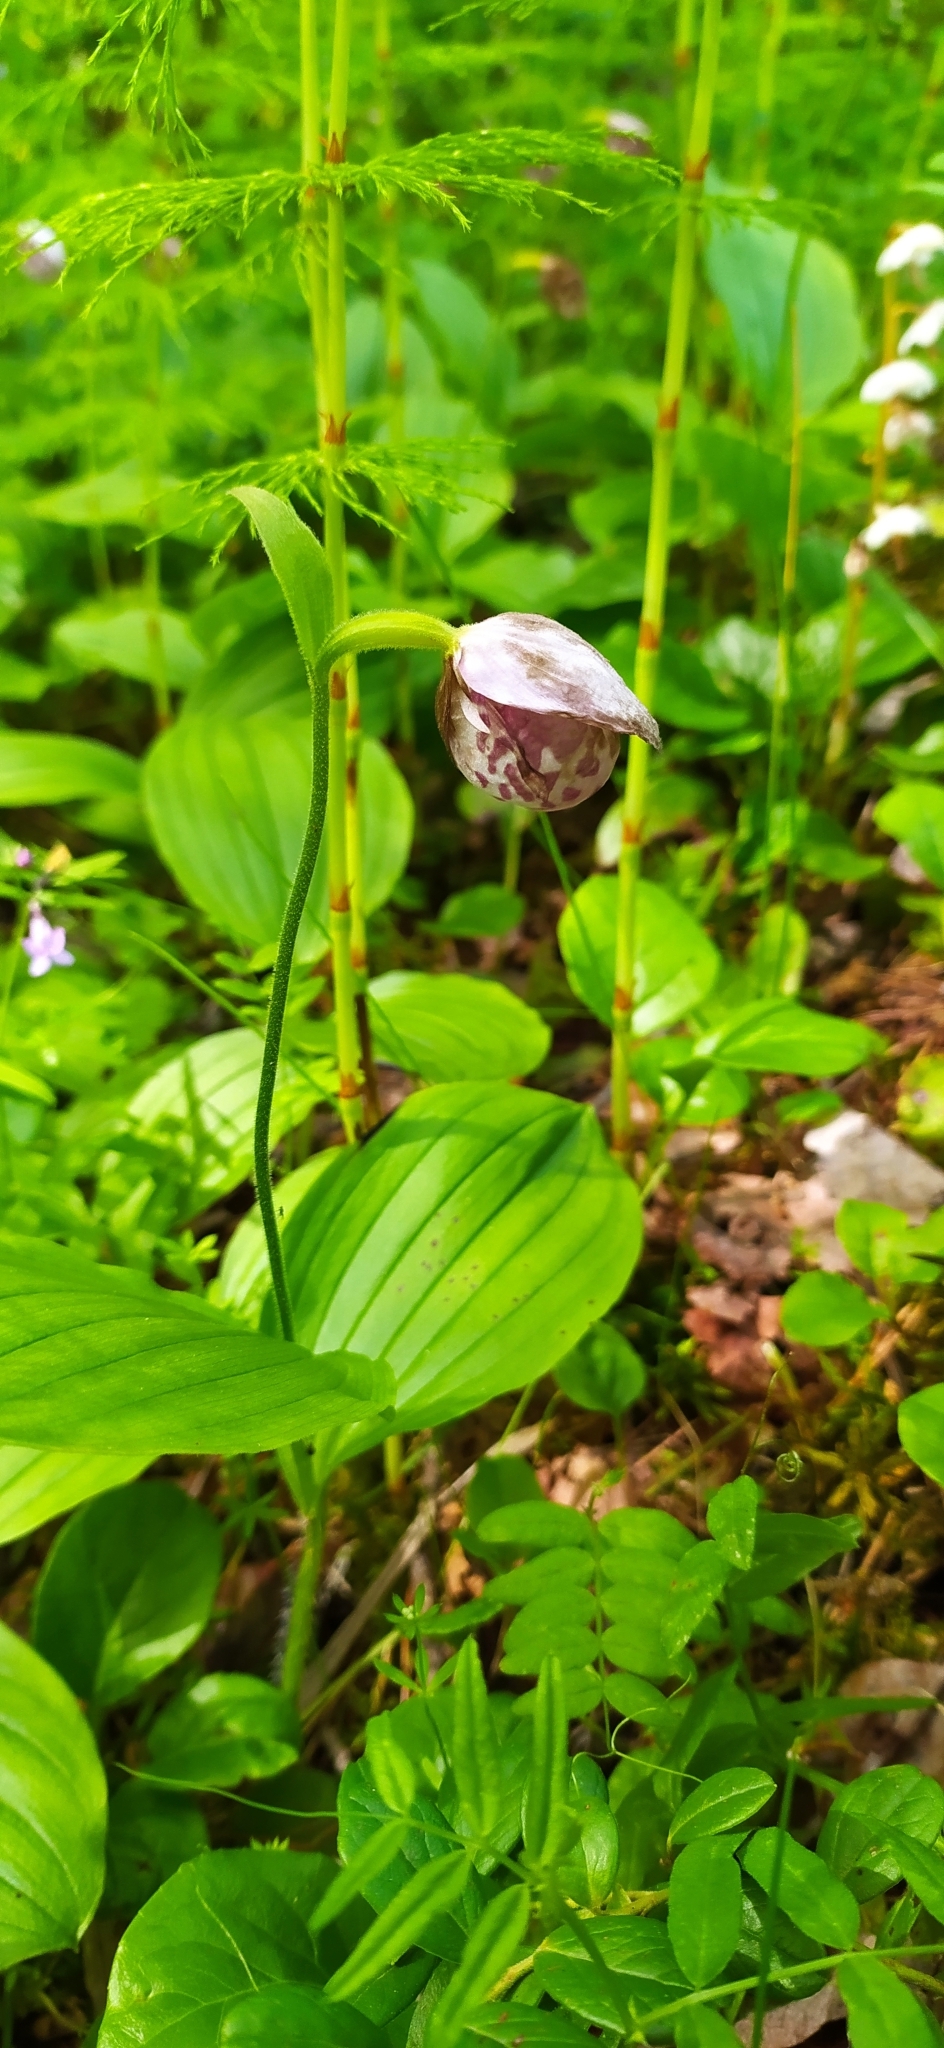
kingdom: Plantae
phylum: Tracheophyta
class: Liliopsida
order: Asparagales
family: Orchidaceae
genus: Cypripedium
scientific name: Cypripedium guttatum
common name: Pink lady slipper
